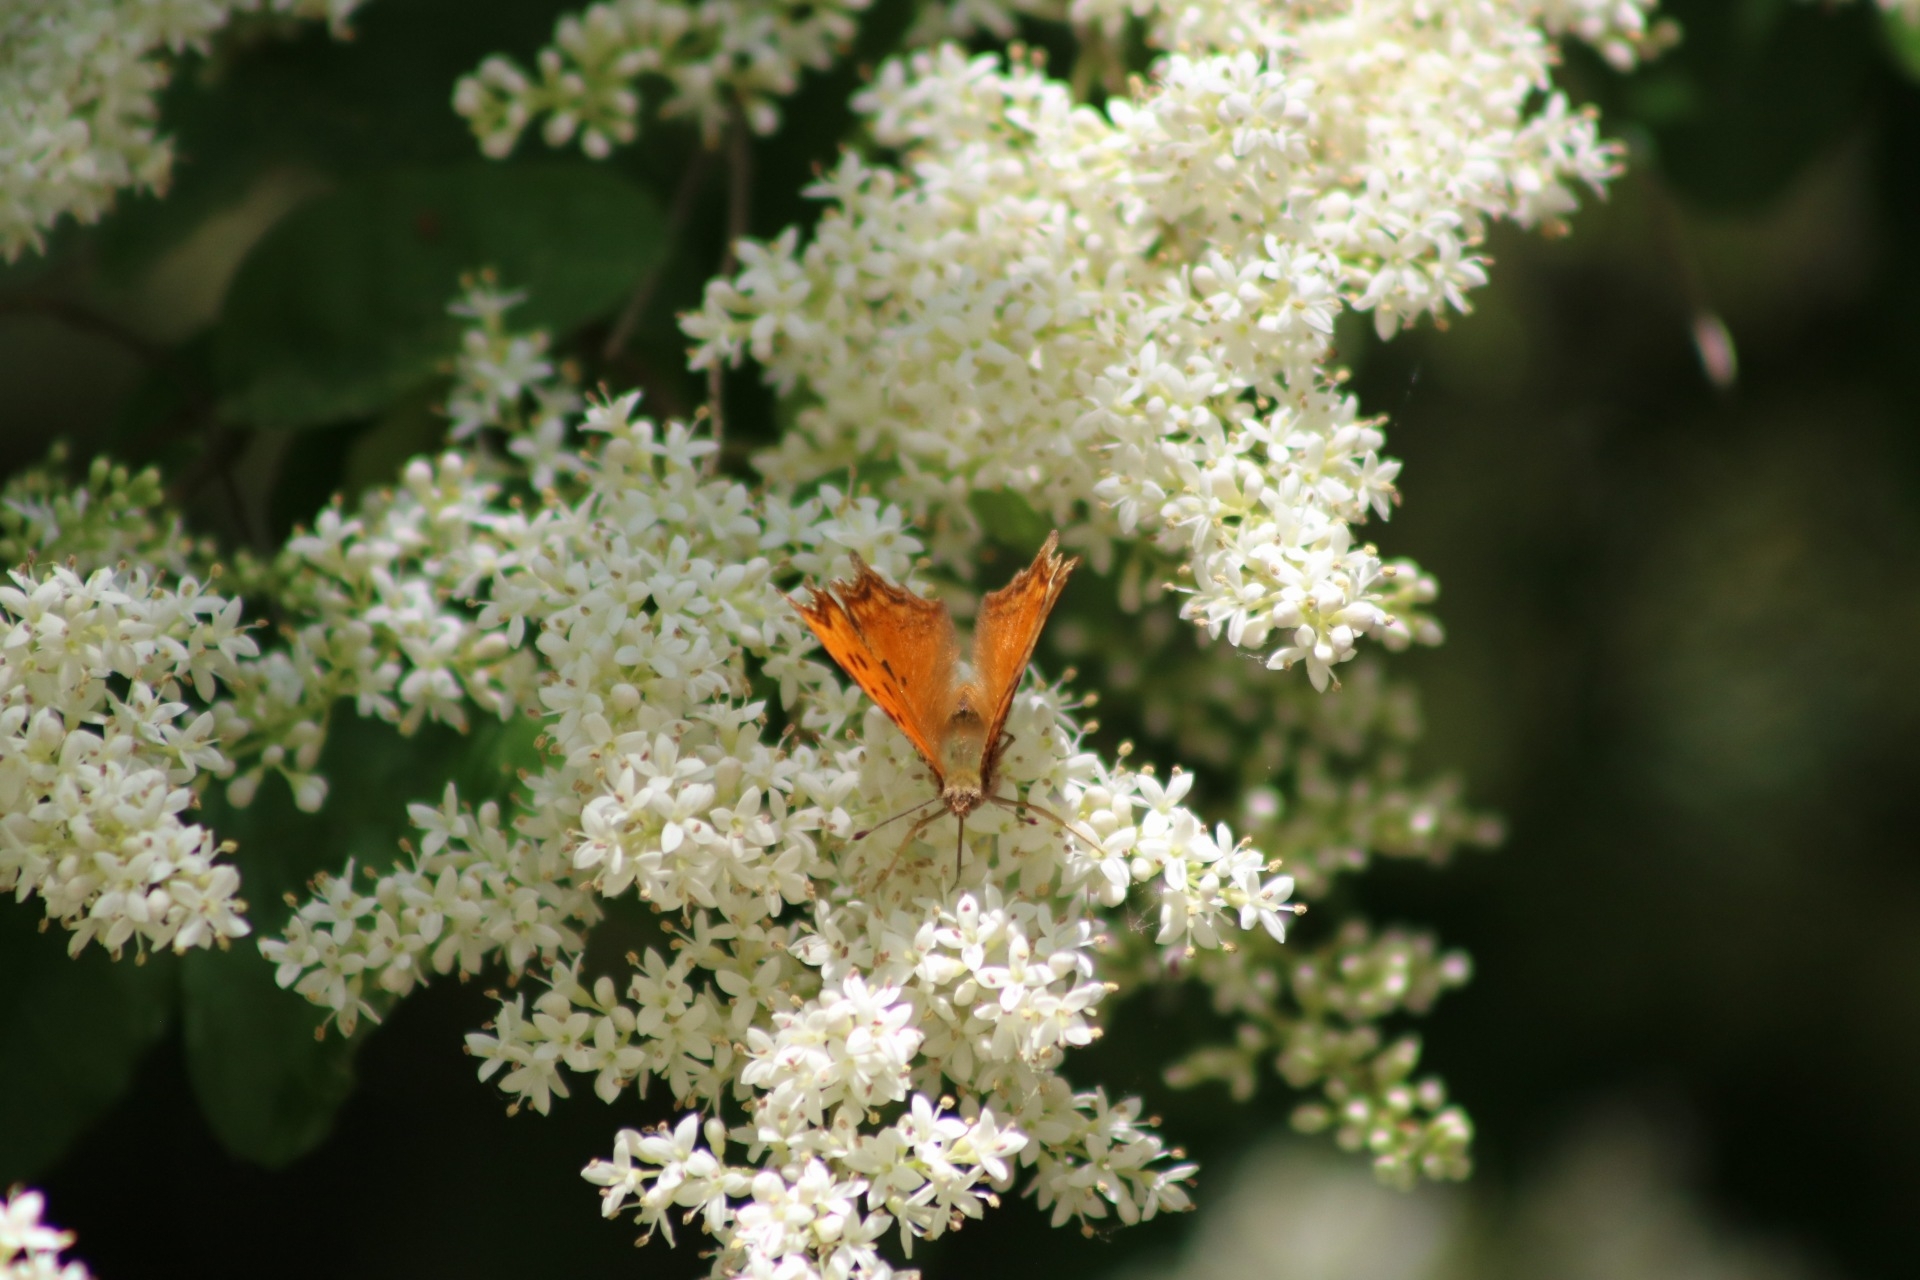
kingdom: Animalia
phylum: Arthropoda
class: Insecta
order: Lepidoptera
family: Nymphalidae
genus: Polygonia
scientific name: Polygonia egea
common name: Southern comma
